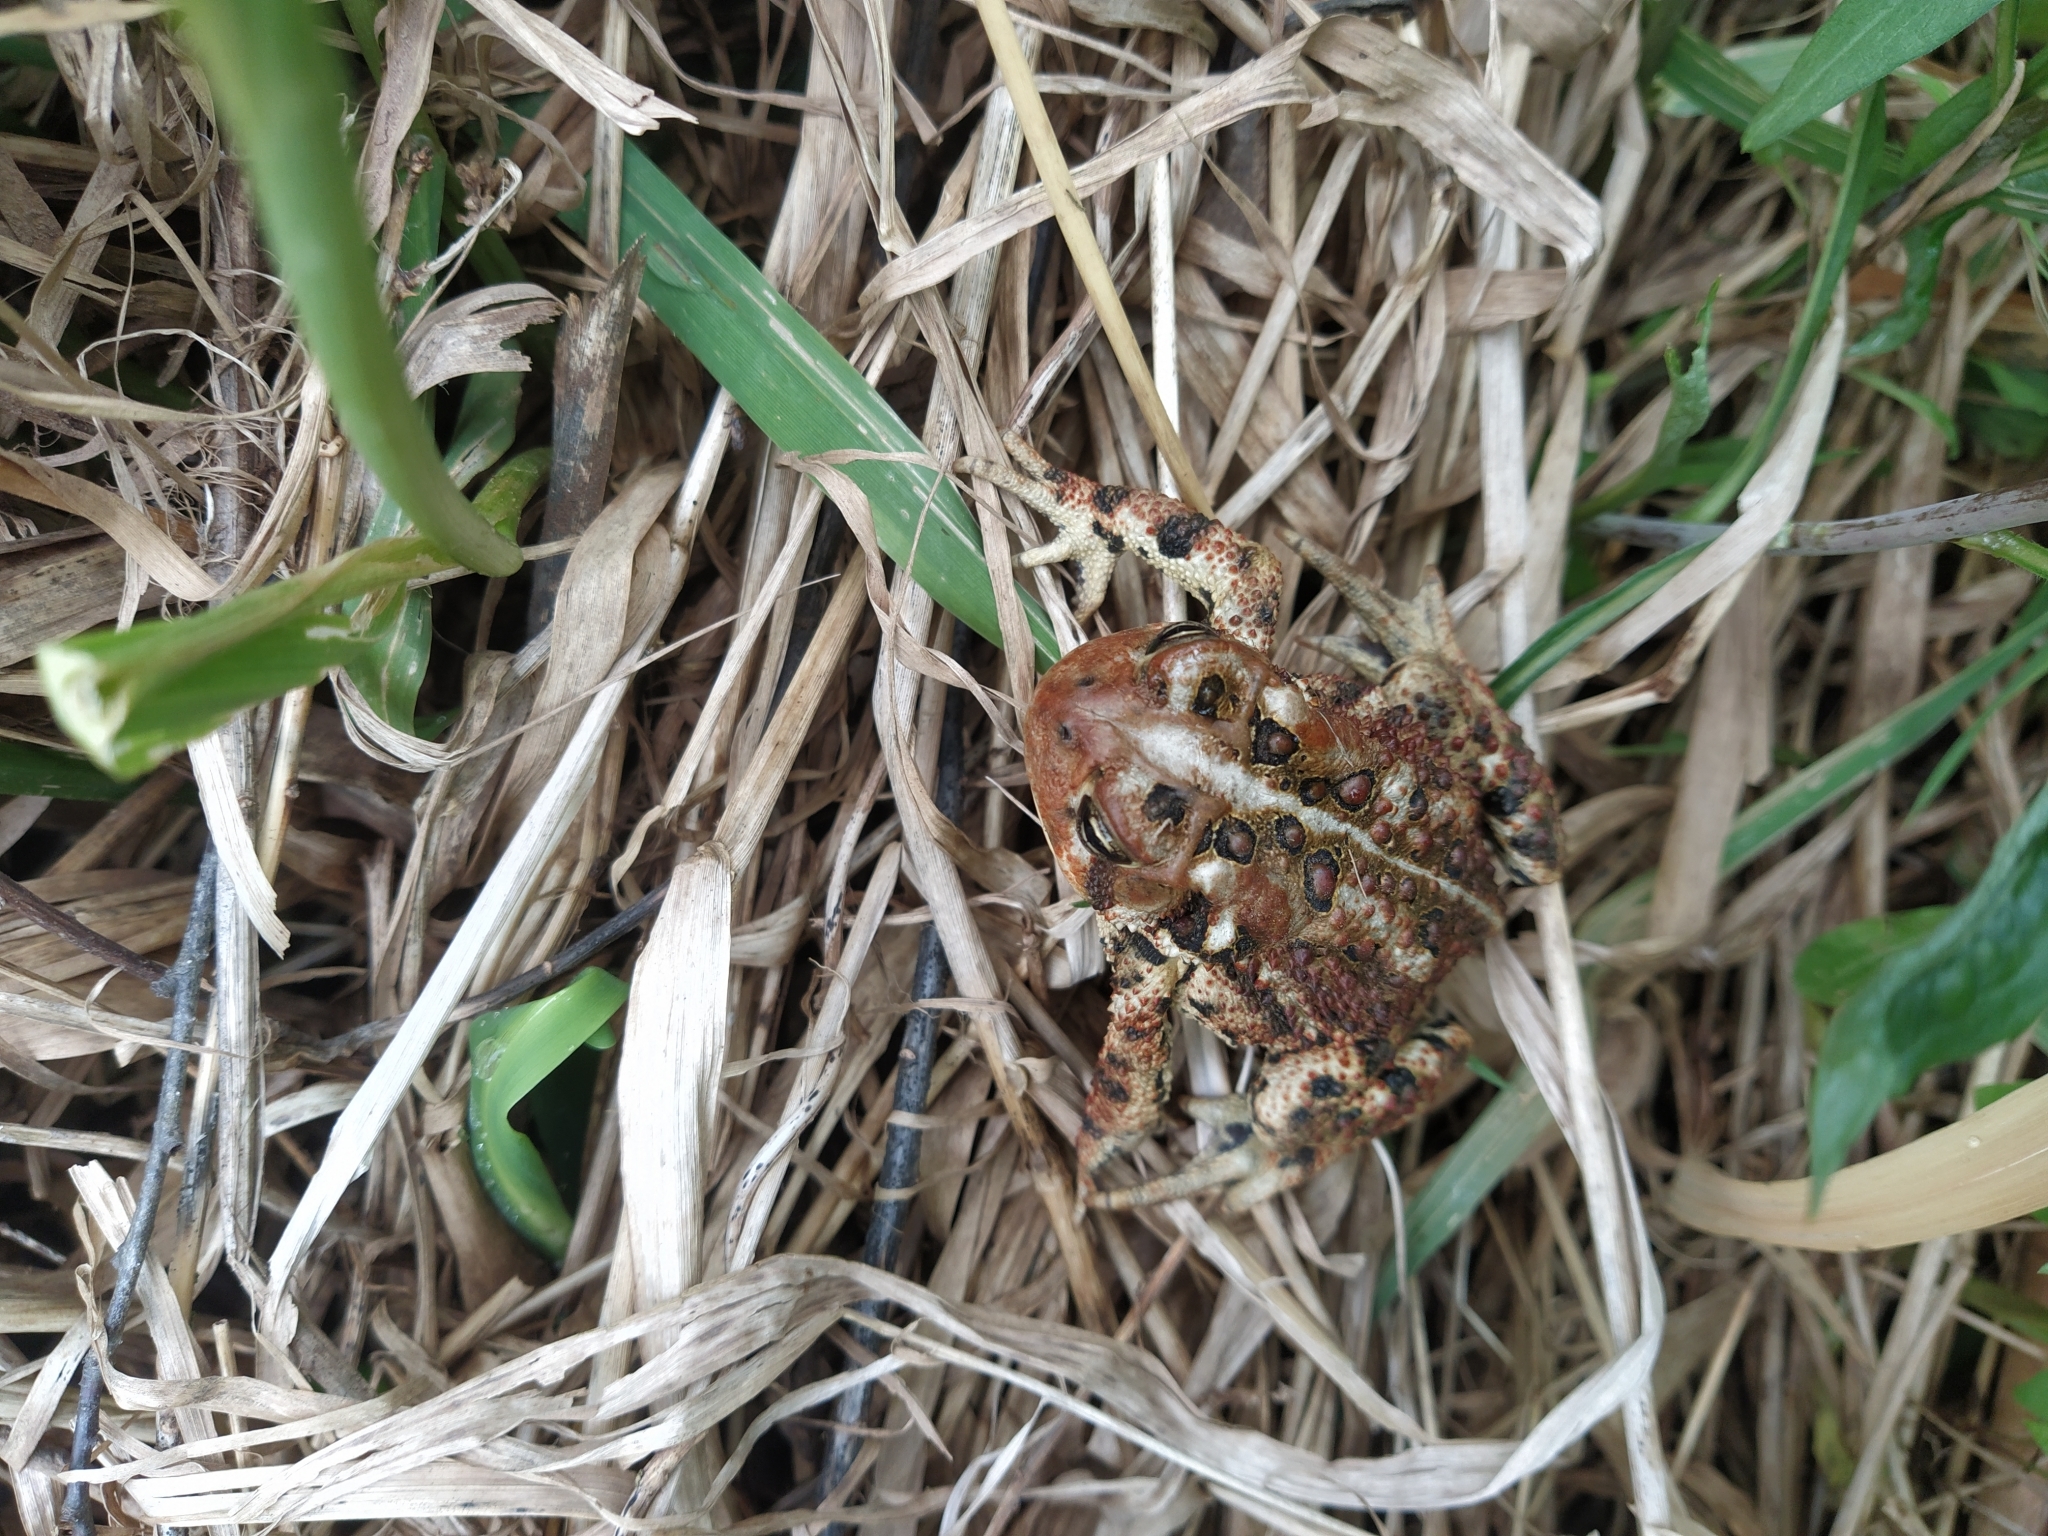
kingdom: Animalia
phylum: Chordata
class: Amphibia
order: Anura
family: Bufonidae
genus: Anaxyrus
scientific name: Anaxyrus americanus
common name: American toad
